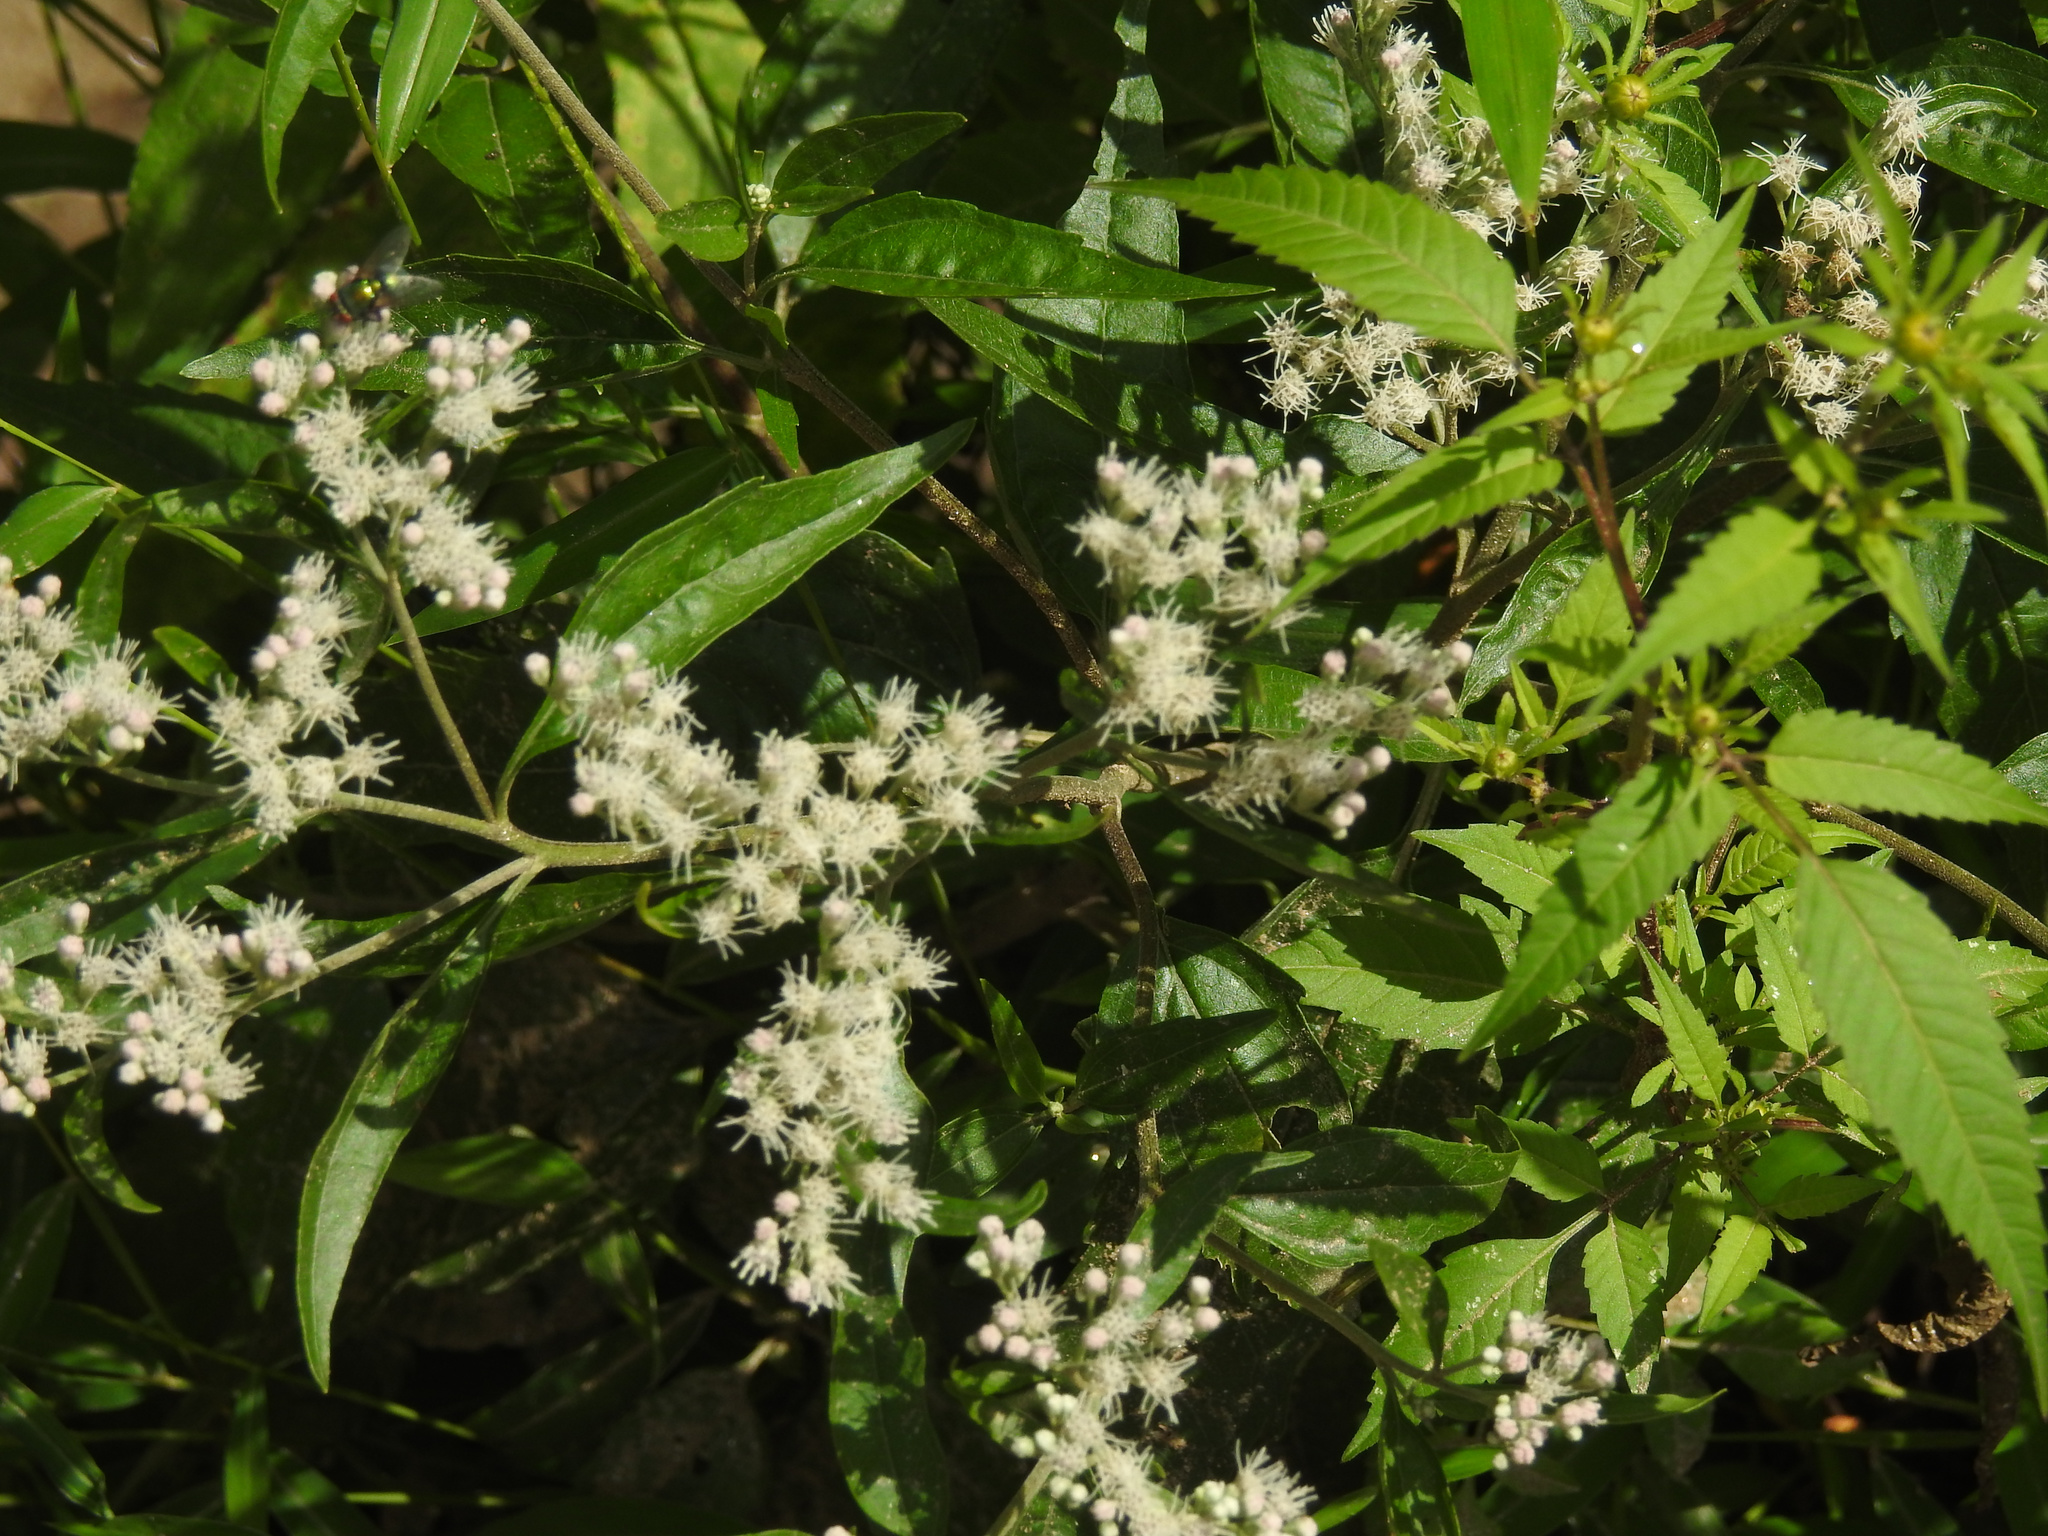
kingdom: Plantae
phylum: Tracheophyta
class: Magnoliopsida
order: Asterales
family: Asteraceae
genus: Eupatorium
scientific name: Eupatorium serotinum
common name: Late boneset
